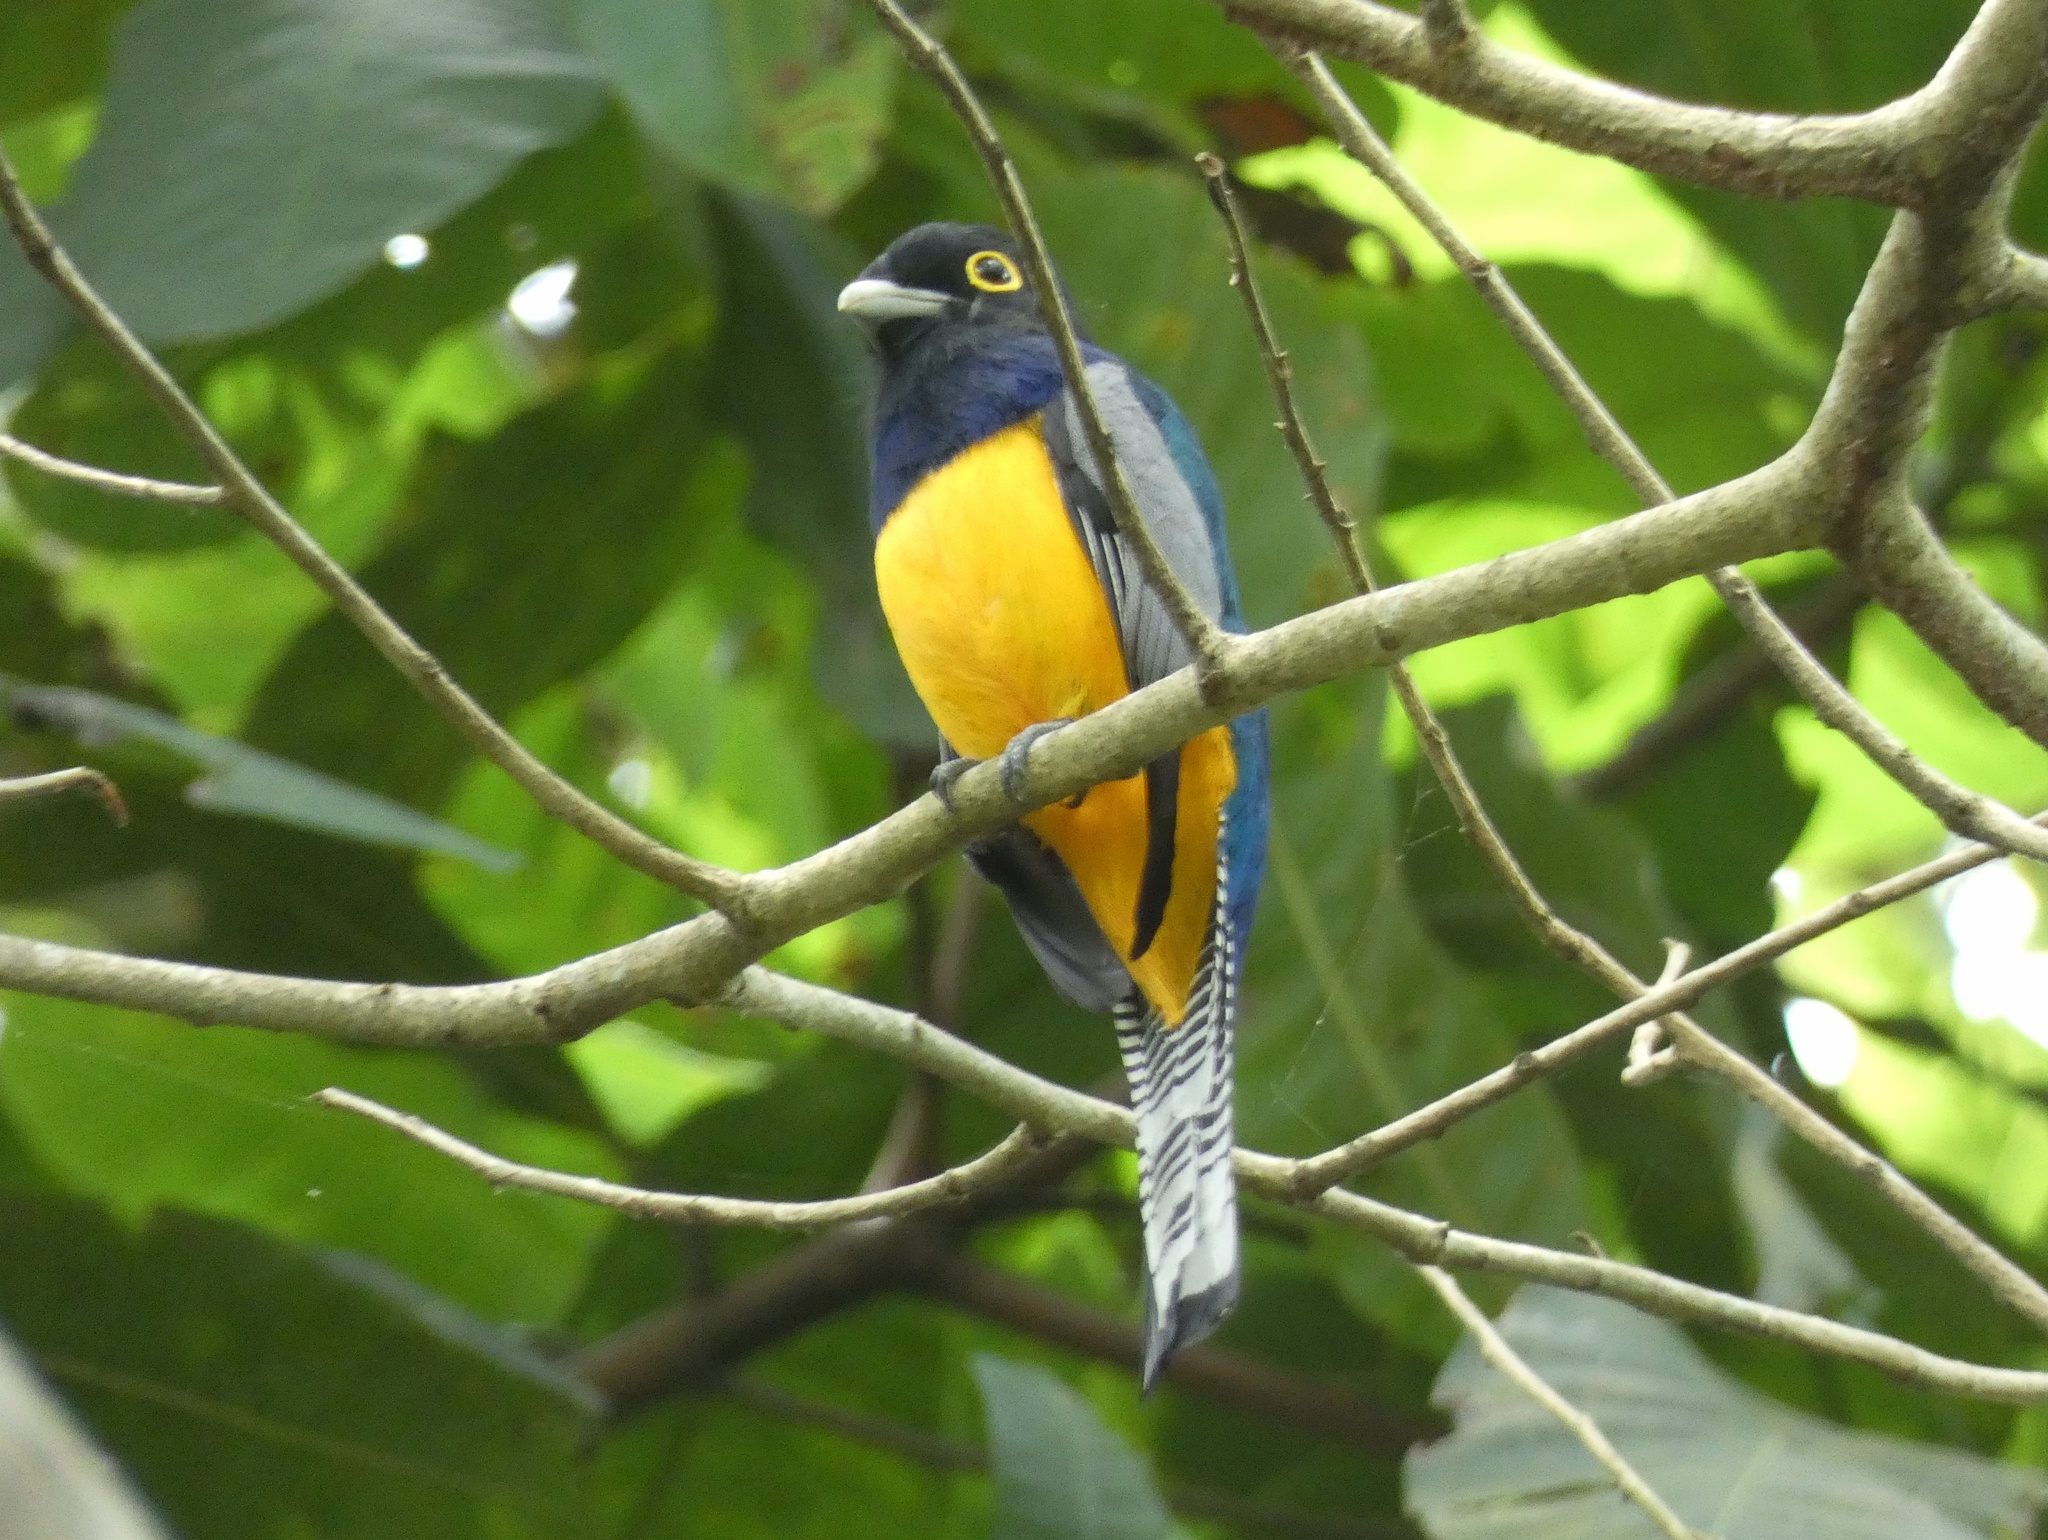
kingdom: Animalia
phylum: Chordata
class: Aves
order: Trogoniformes
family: Trogonidae
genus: Trogon
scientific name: Trogon caligatus
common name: Gartered trogon
